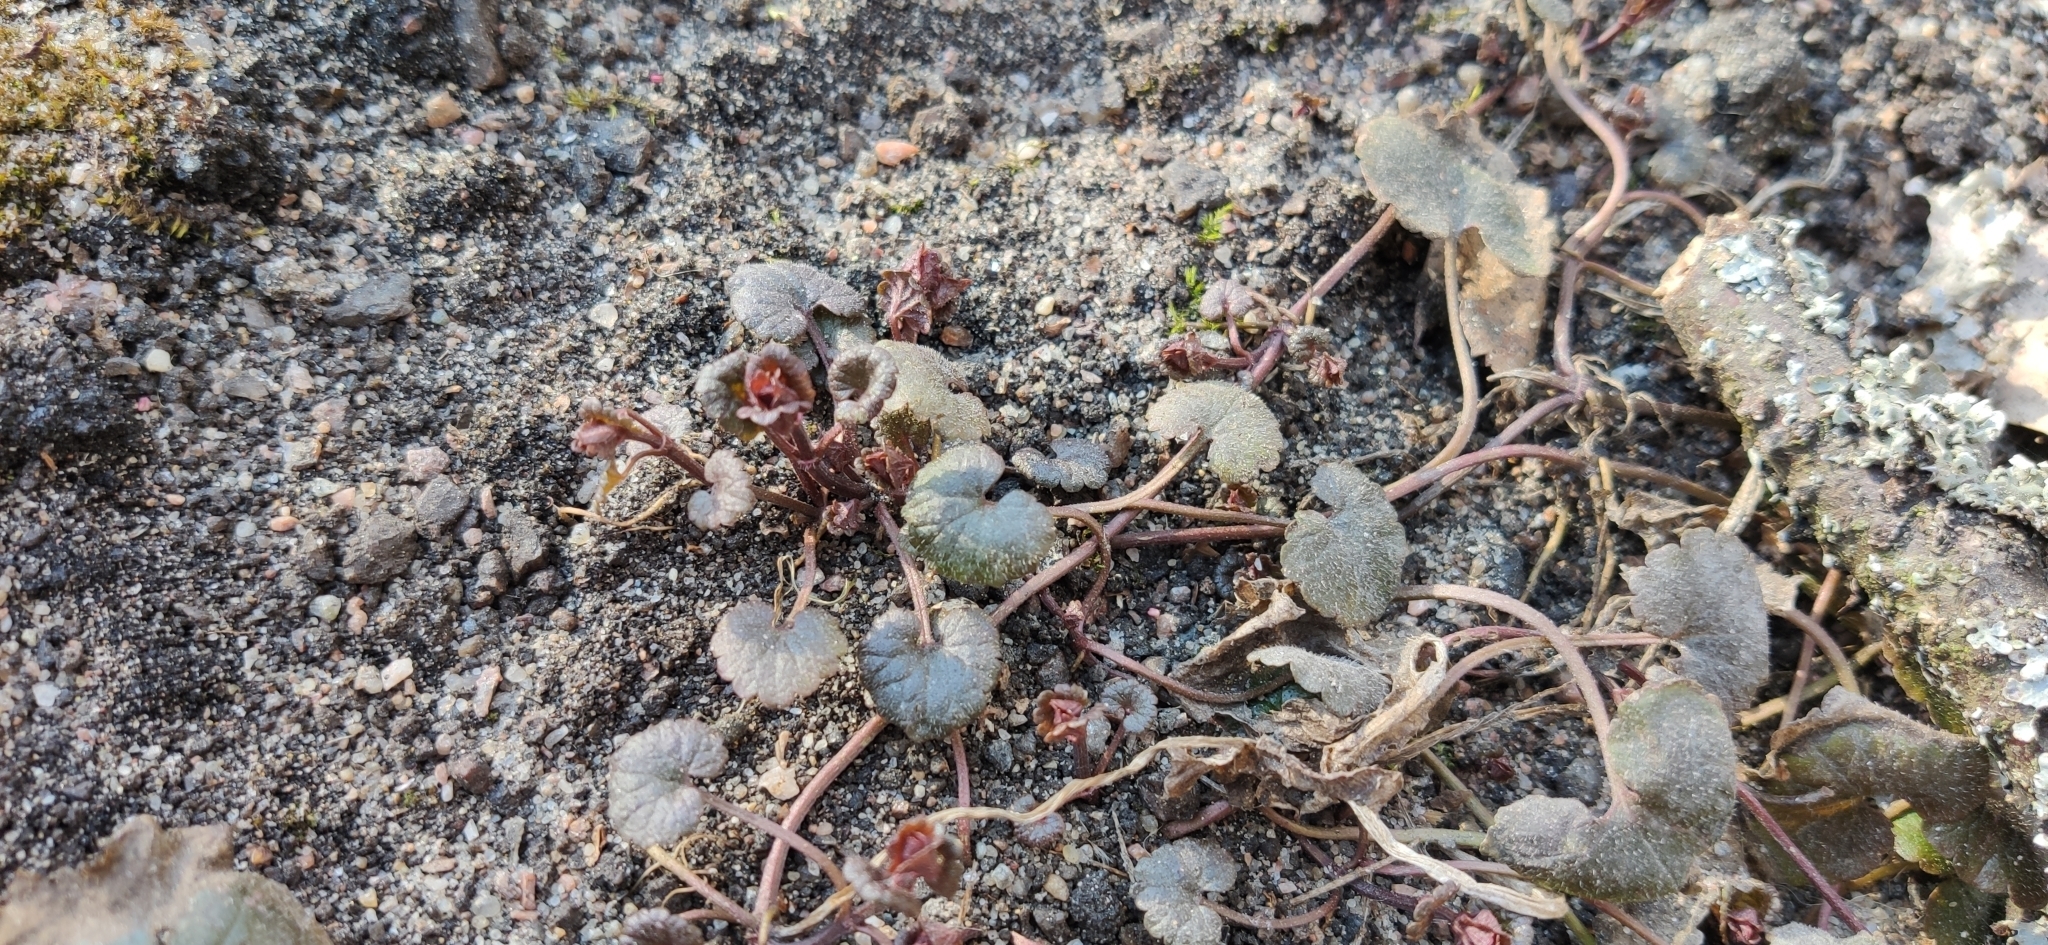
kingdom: Plantae
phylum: Tracheophyta
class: Magnoliopsida
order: Lamiales
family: Lamiaceae
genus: Glechoma
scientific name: Glechoma hederacea
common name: Ground ivy
